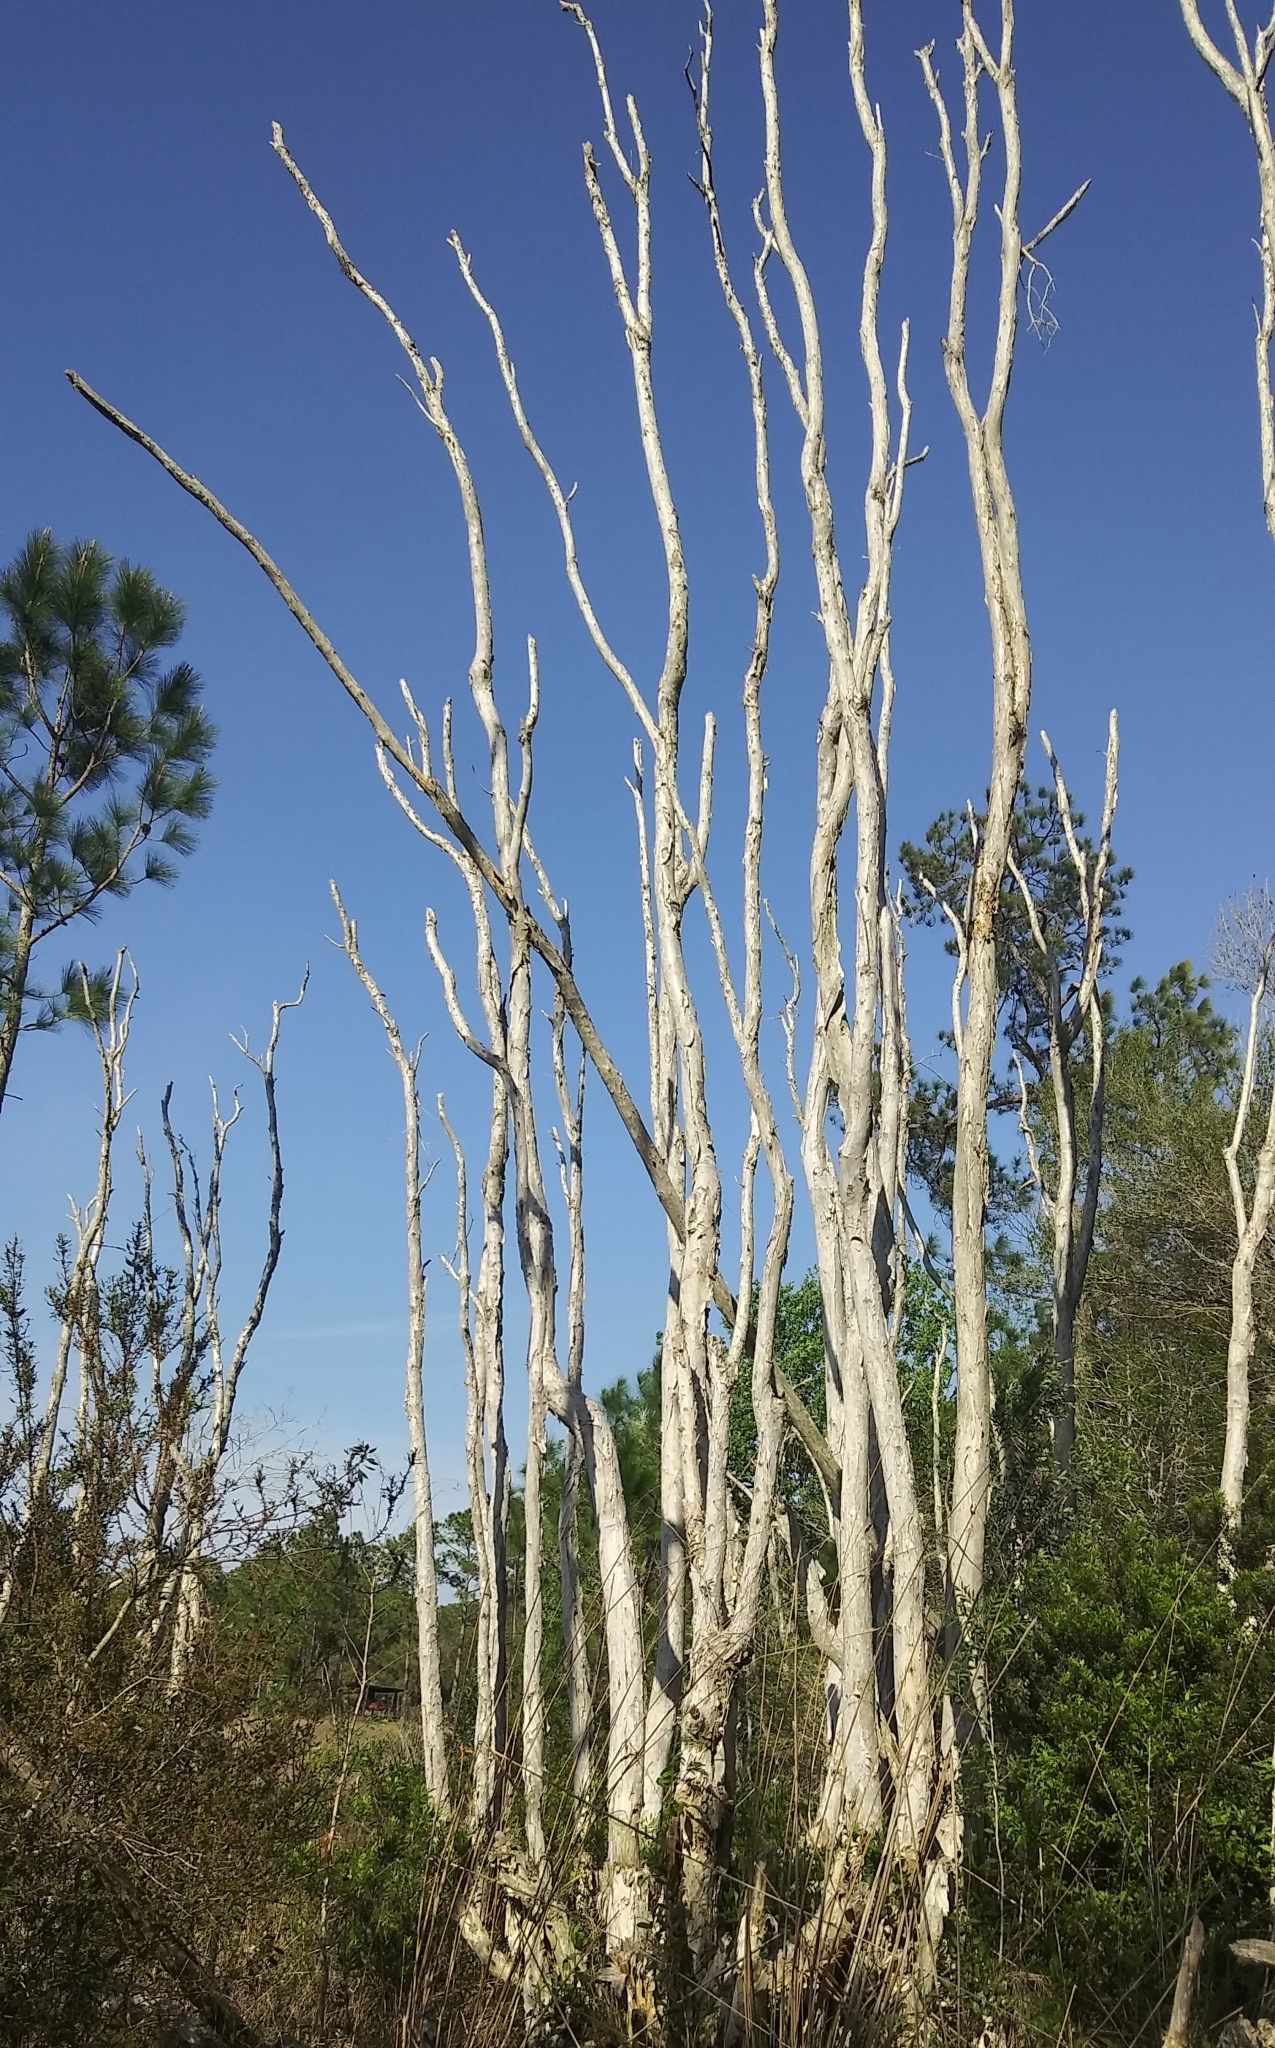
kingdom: Plantae
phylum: Tracheophyta
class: Magnoliopsida
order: Myrtales
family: Myrtaceae
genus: Melaleuca
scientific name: Melaleuca quinquenervia
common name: Punktree
